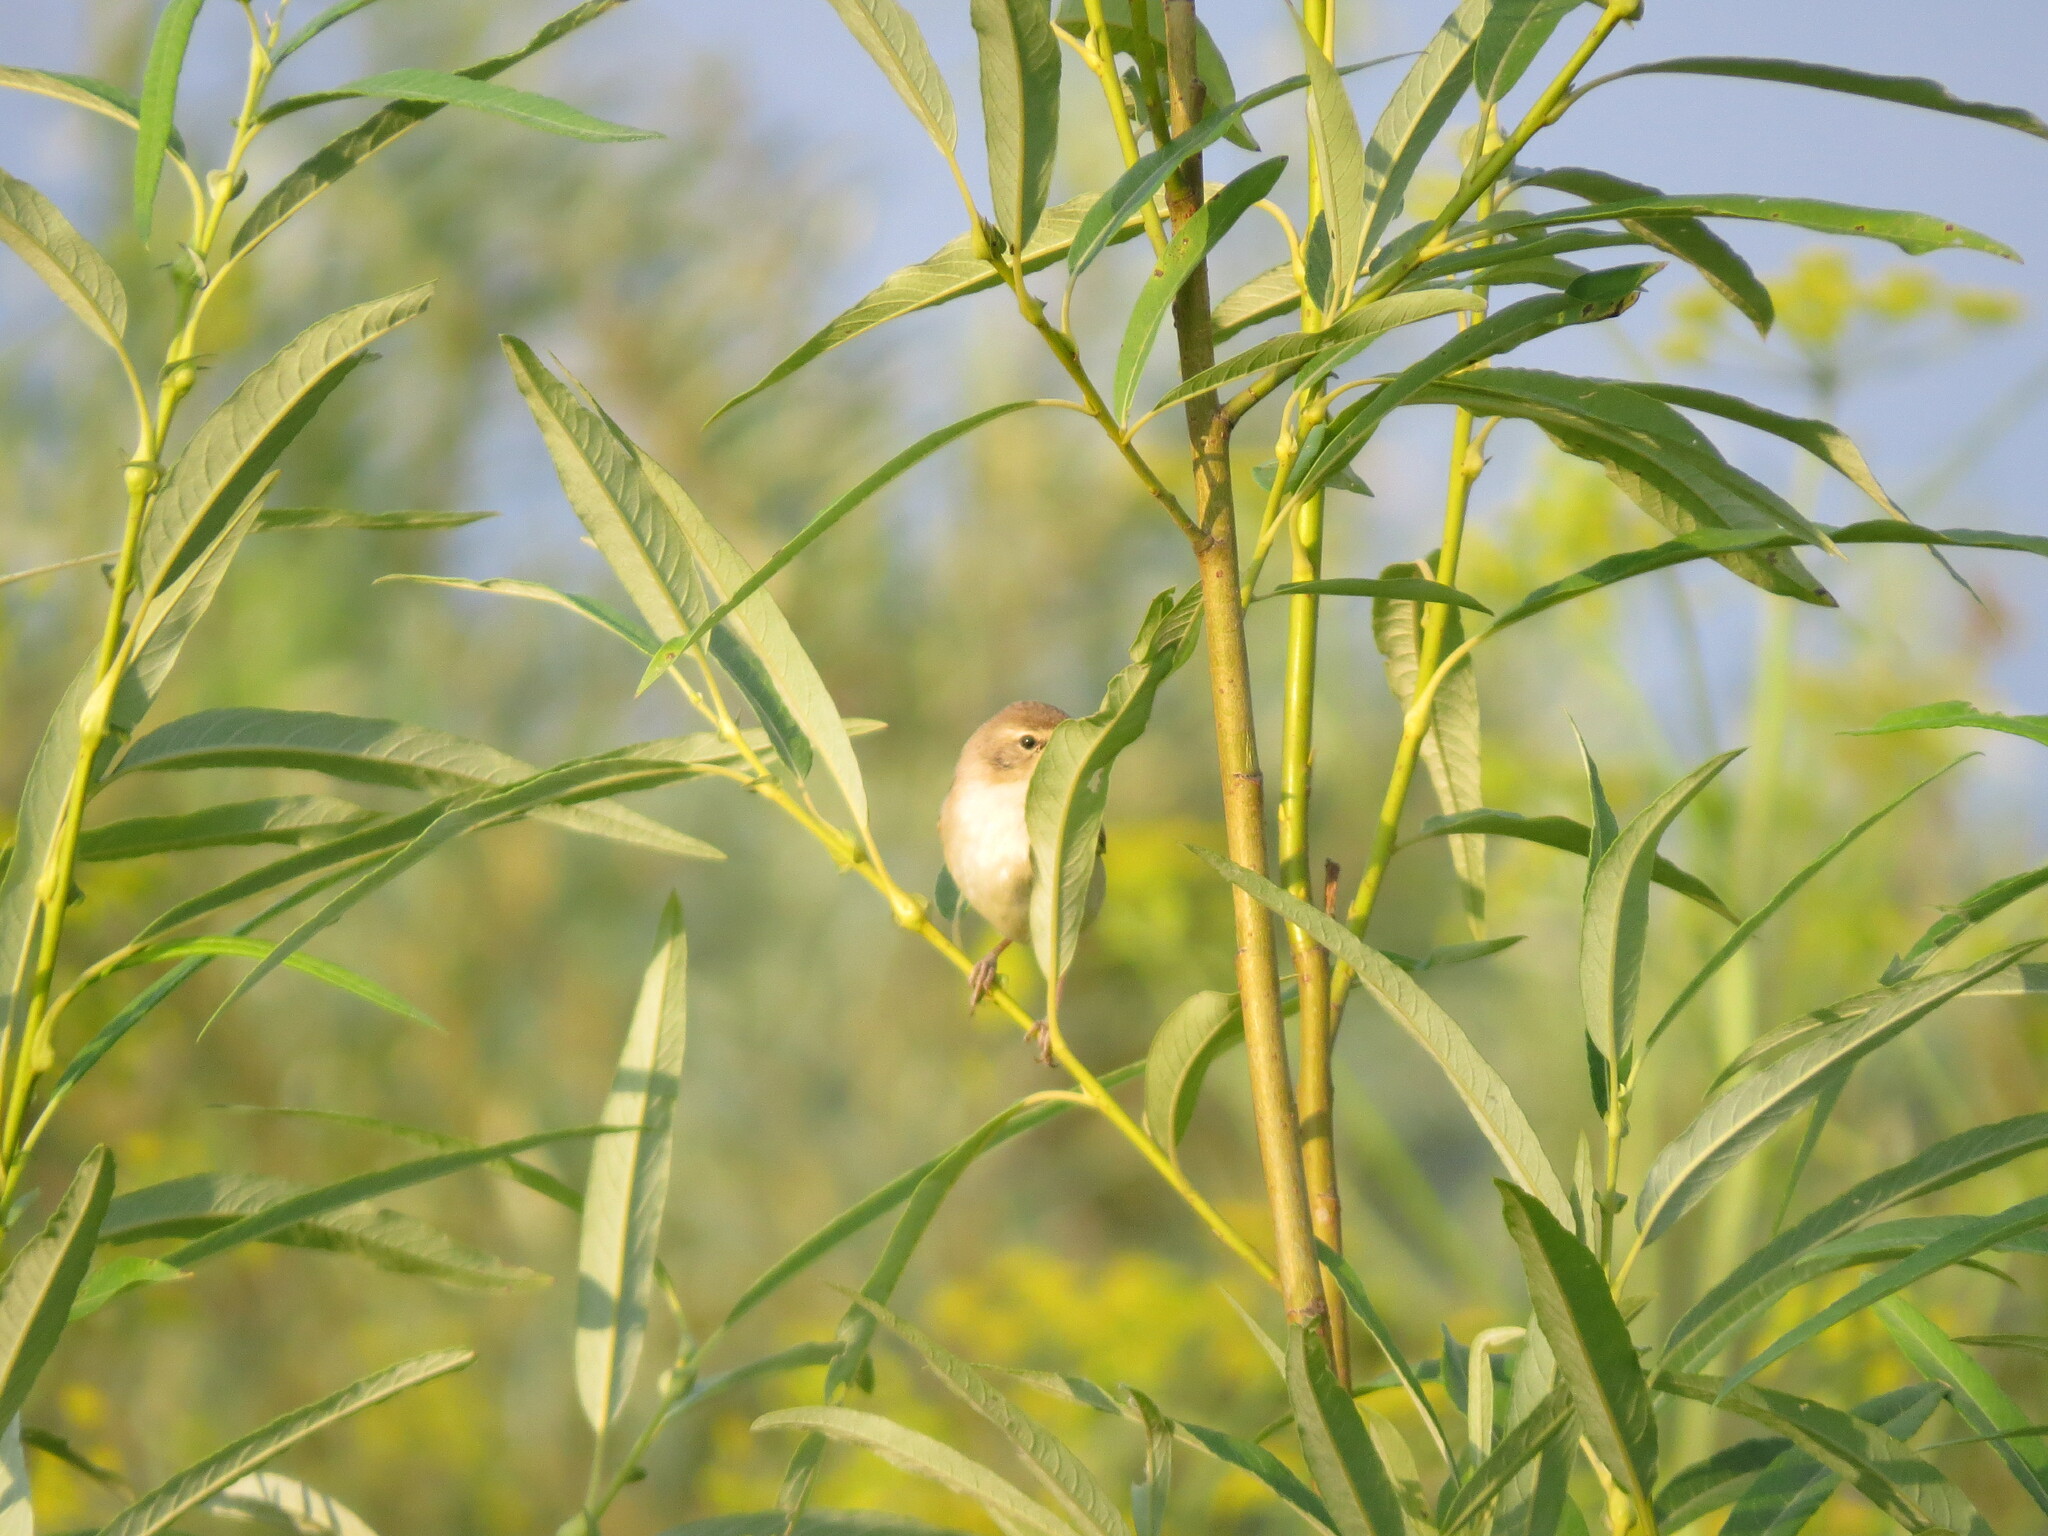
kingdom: Animalia
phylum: Chordata
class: Aves
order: Passeriformes
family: Acrocephalidae
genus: Iduna
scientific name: Iduna caligata
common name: Booted warbler
